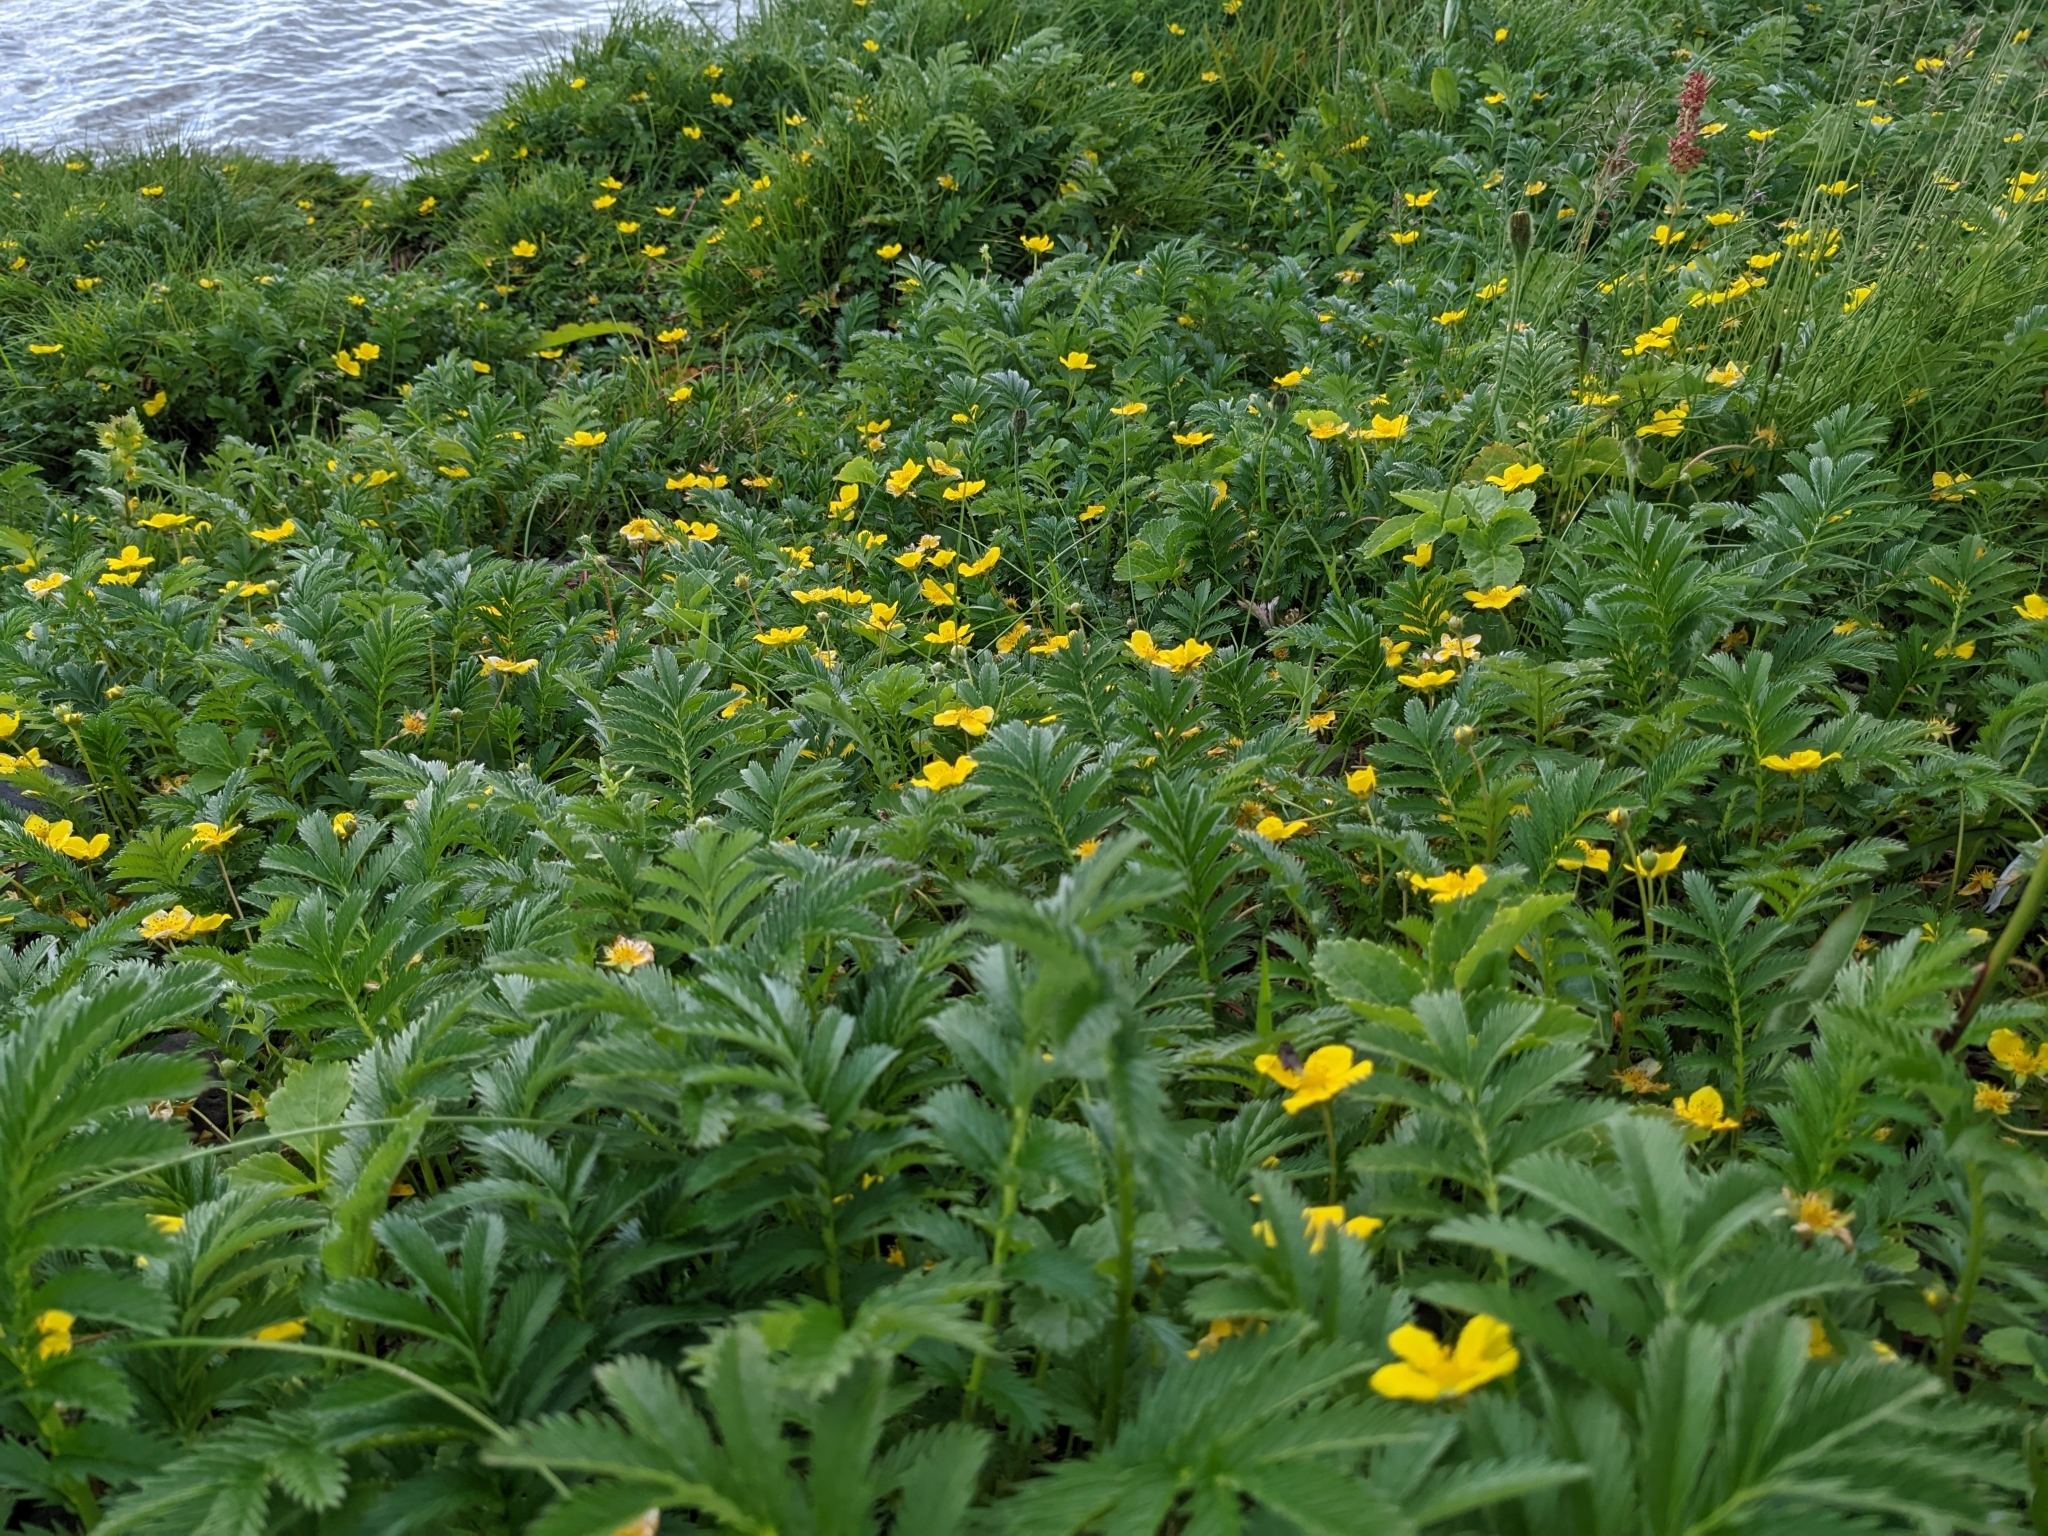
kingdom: Plantae
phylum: Tracheophyta
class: Magnoliopsida
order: Rosales
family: Rosaceae
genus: Argentina
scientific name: Argentina anserina
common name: Common silverweed
